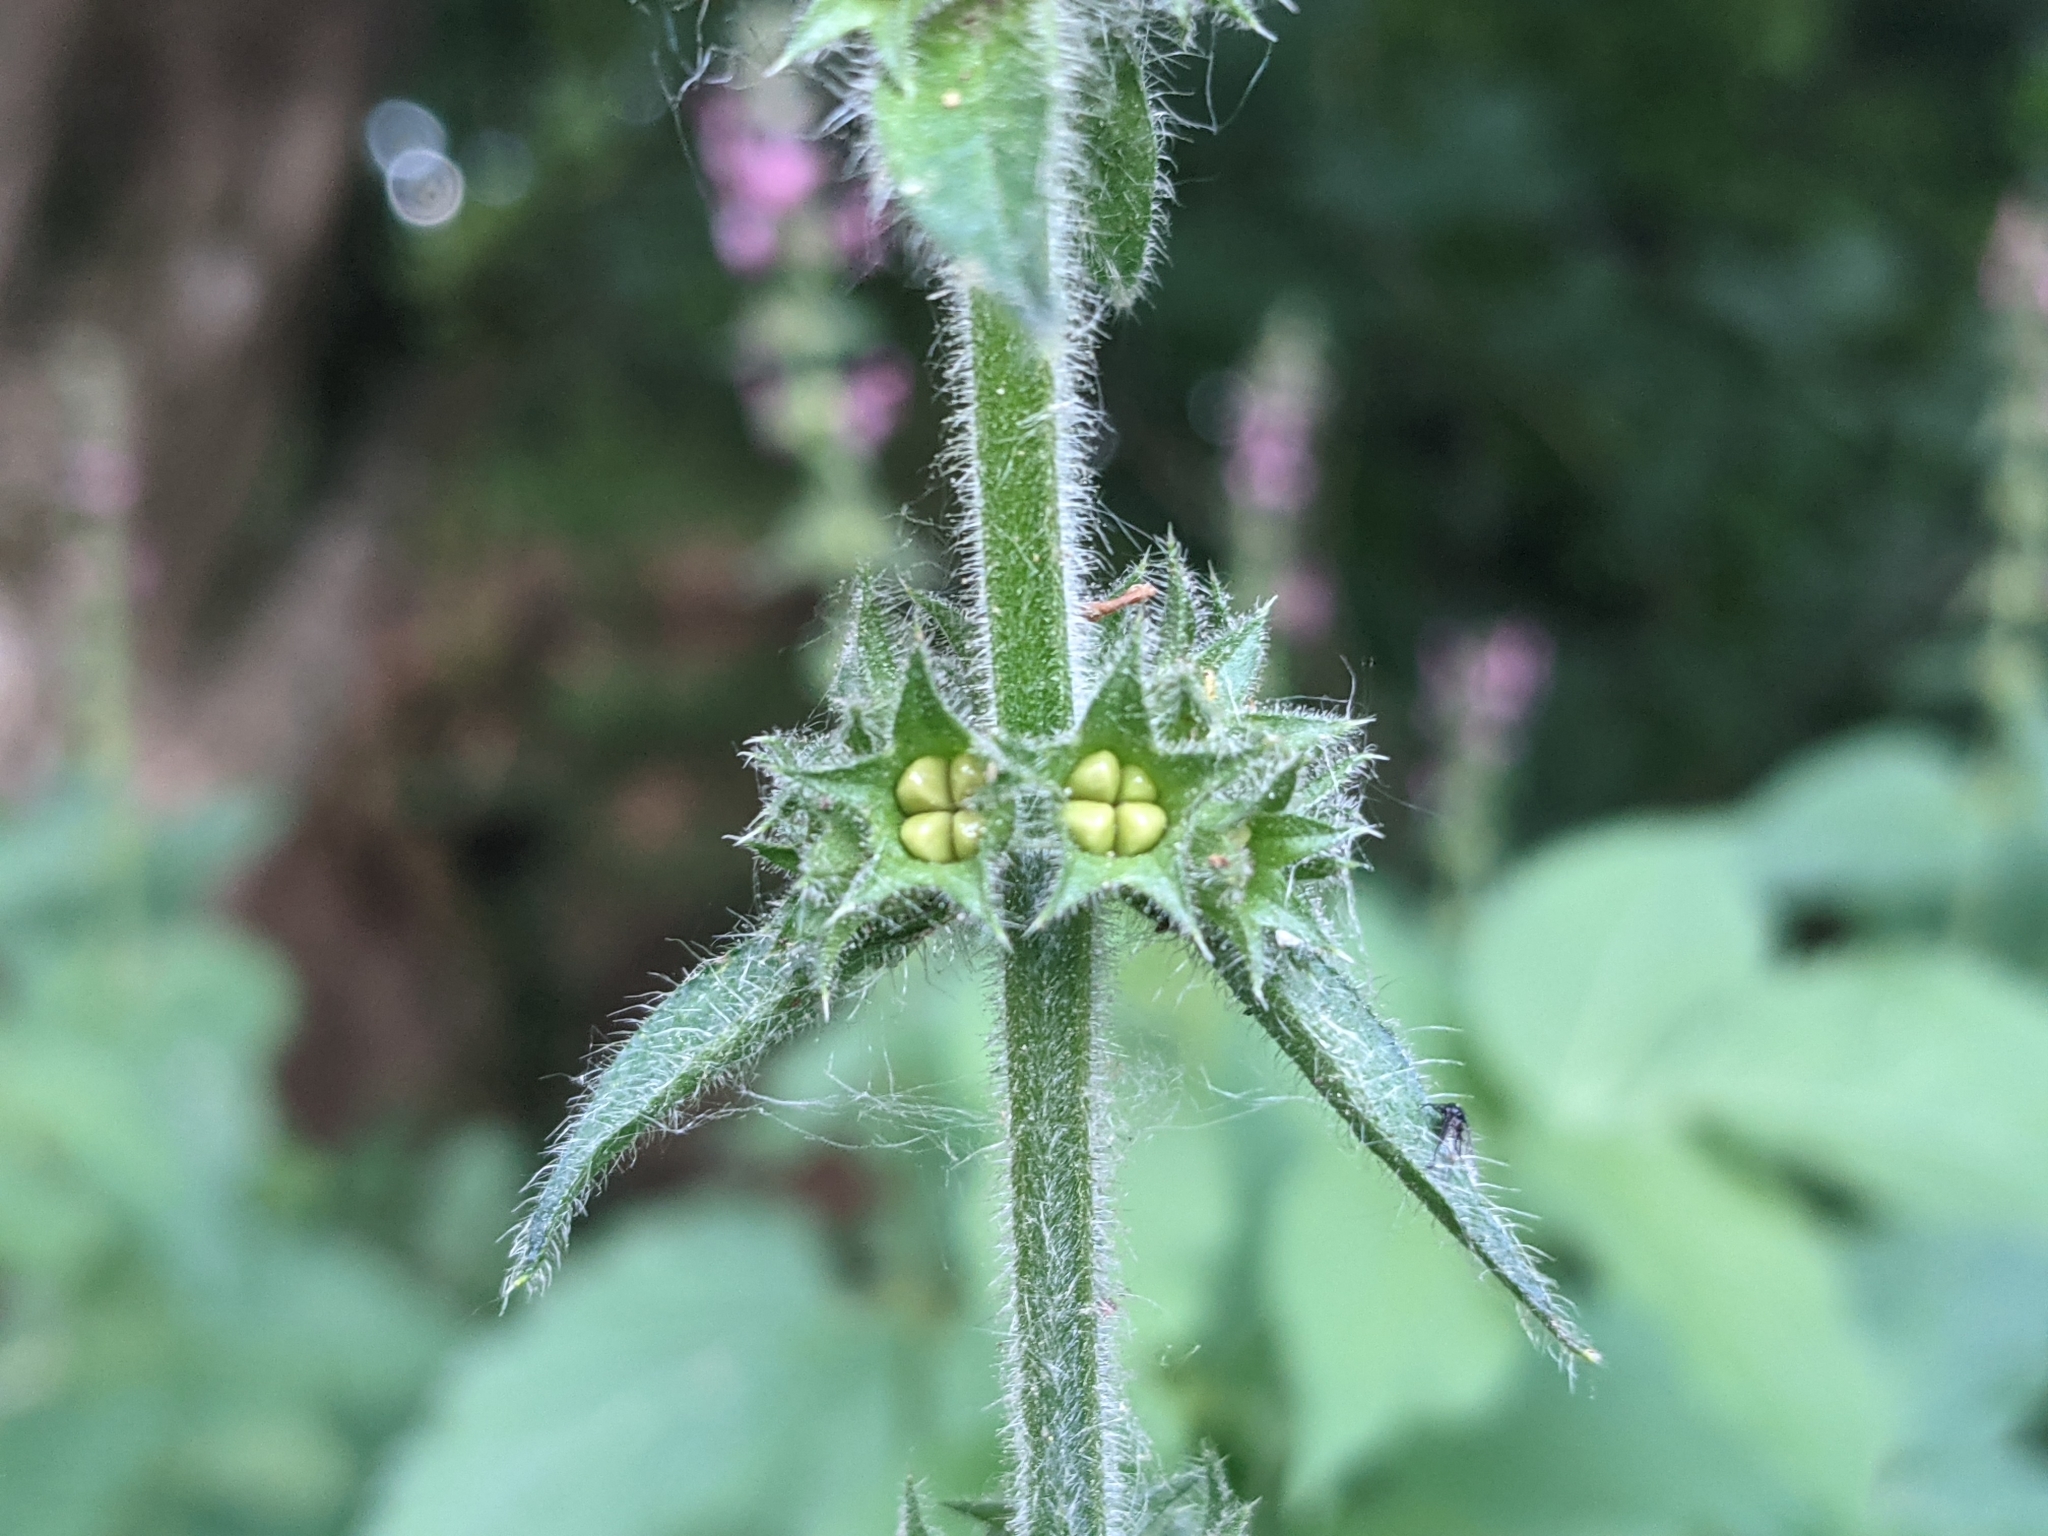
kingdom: Plantae
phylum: Tracheophyta
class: Magnoliopsida
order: Lamiales
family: Lamiaceae
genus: Stachys
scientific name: Stachys sylvatica
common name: Hedge woundwort
